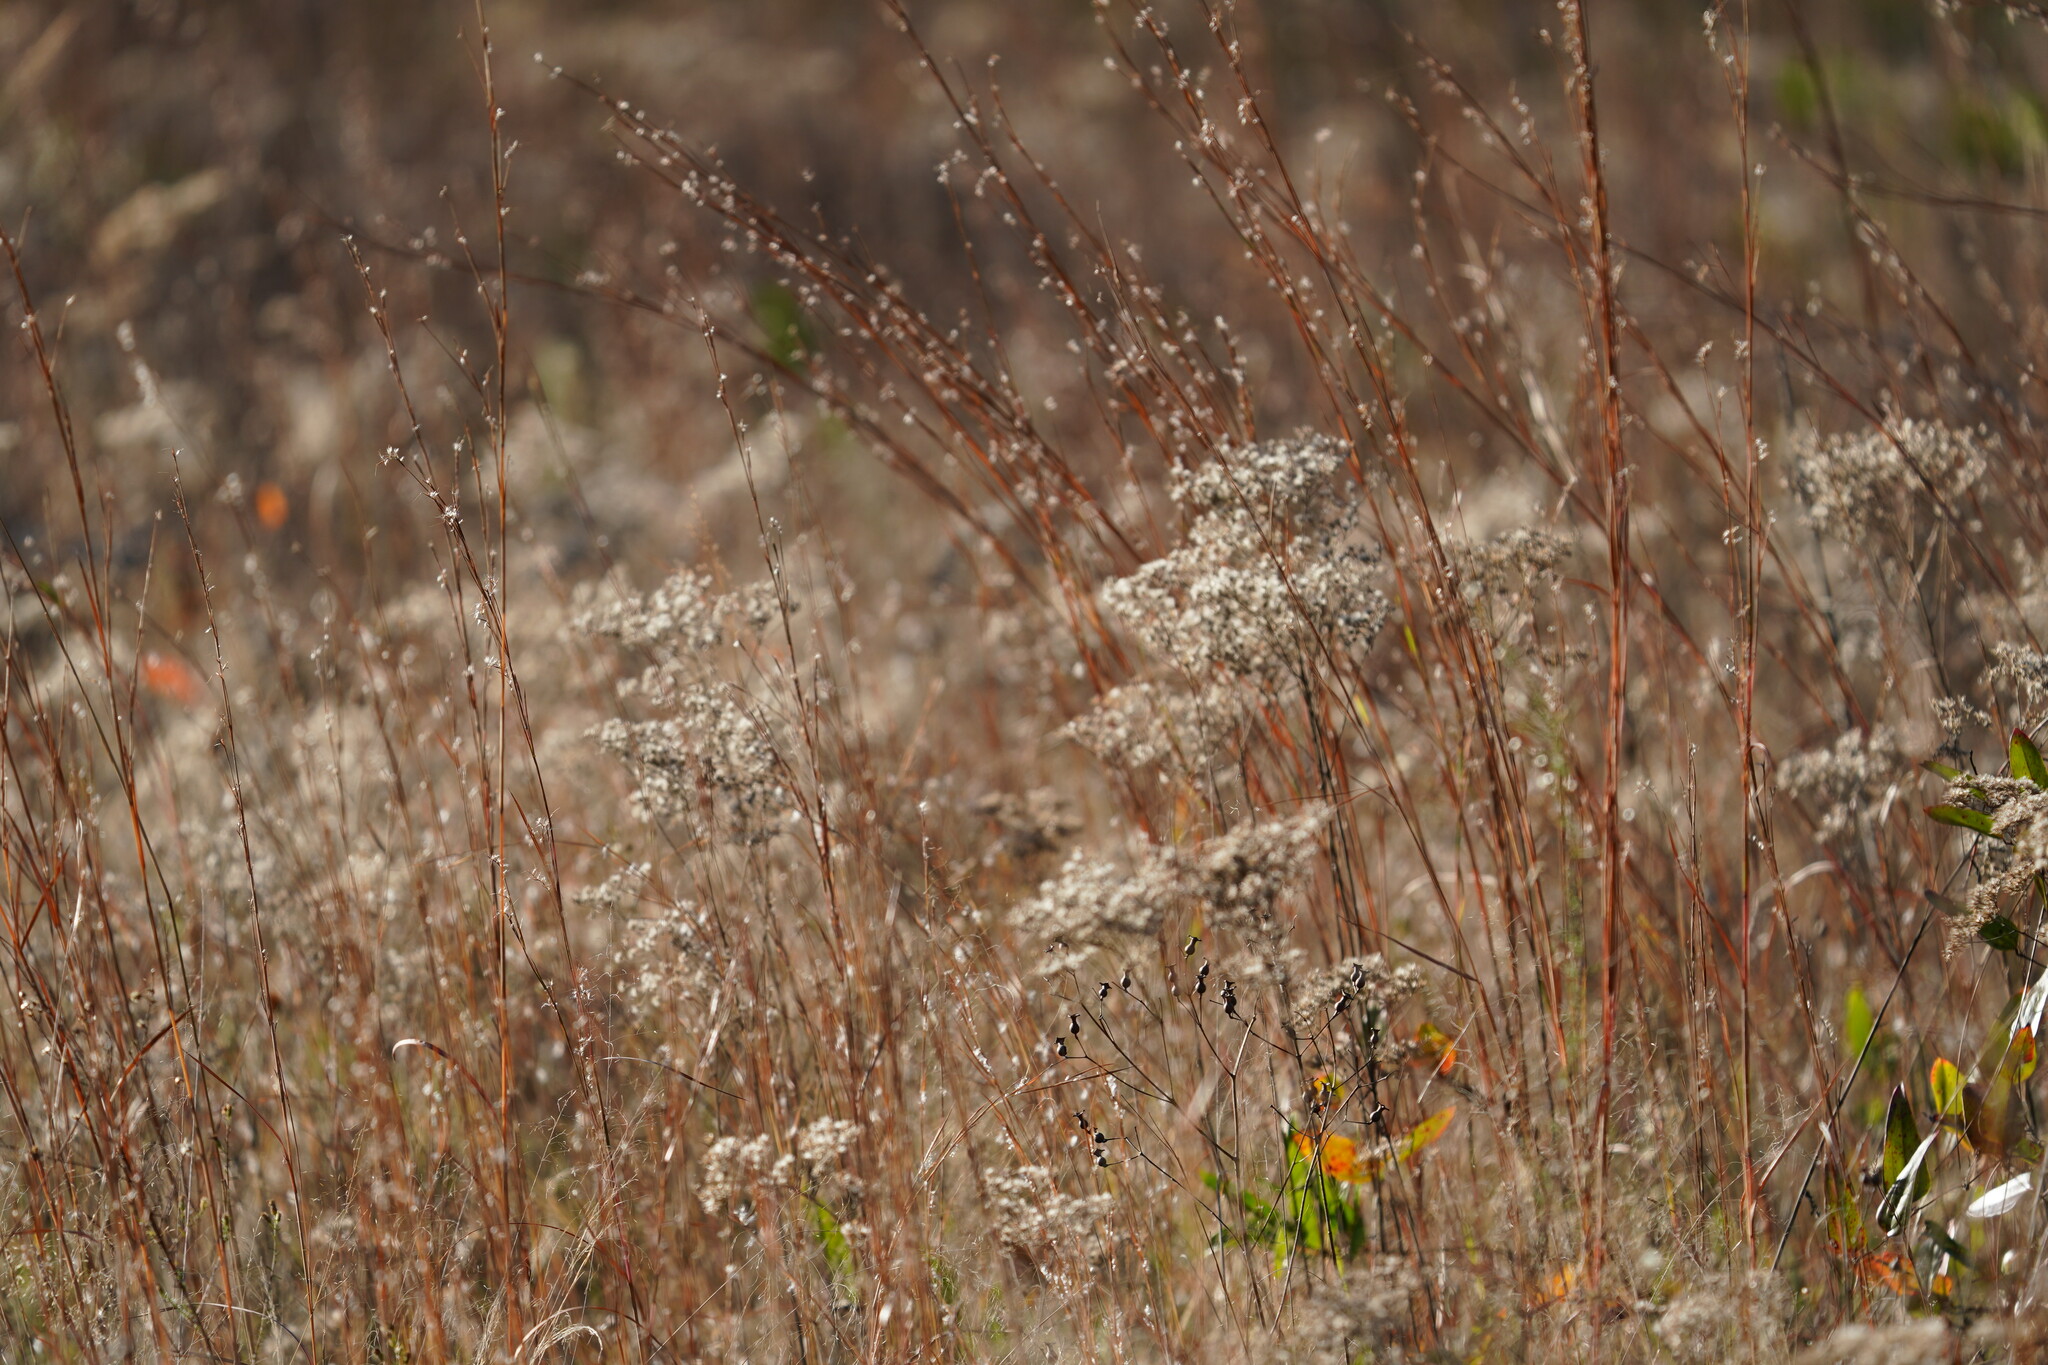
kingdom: Plantae
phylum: Tracheophyta
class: Liliopsida
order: Poales
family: Poaceae
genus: Schizachyrium
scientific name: Schizachyrium scoparium
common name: Little bluestem
